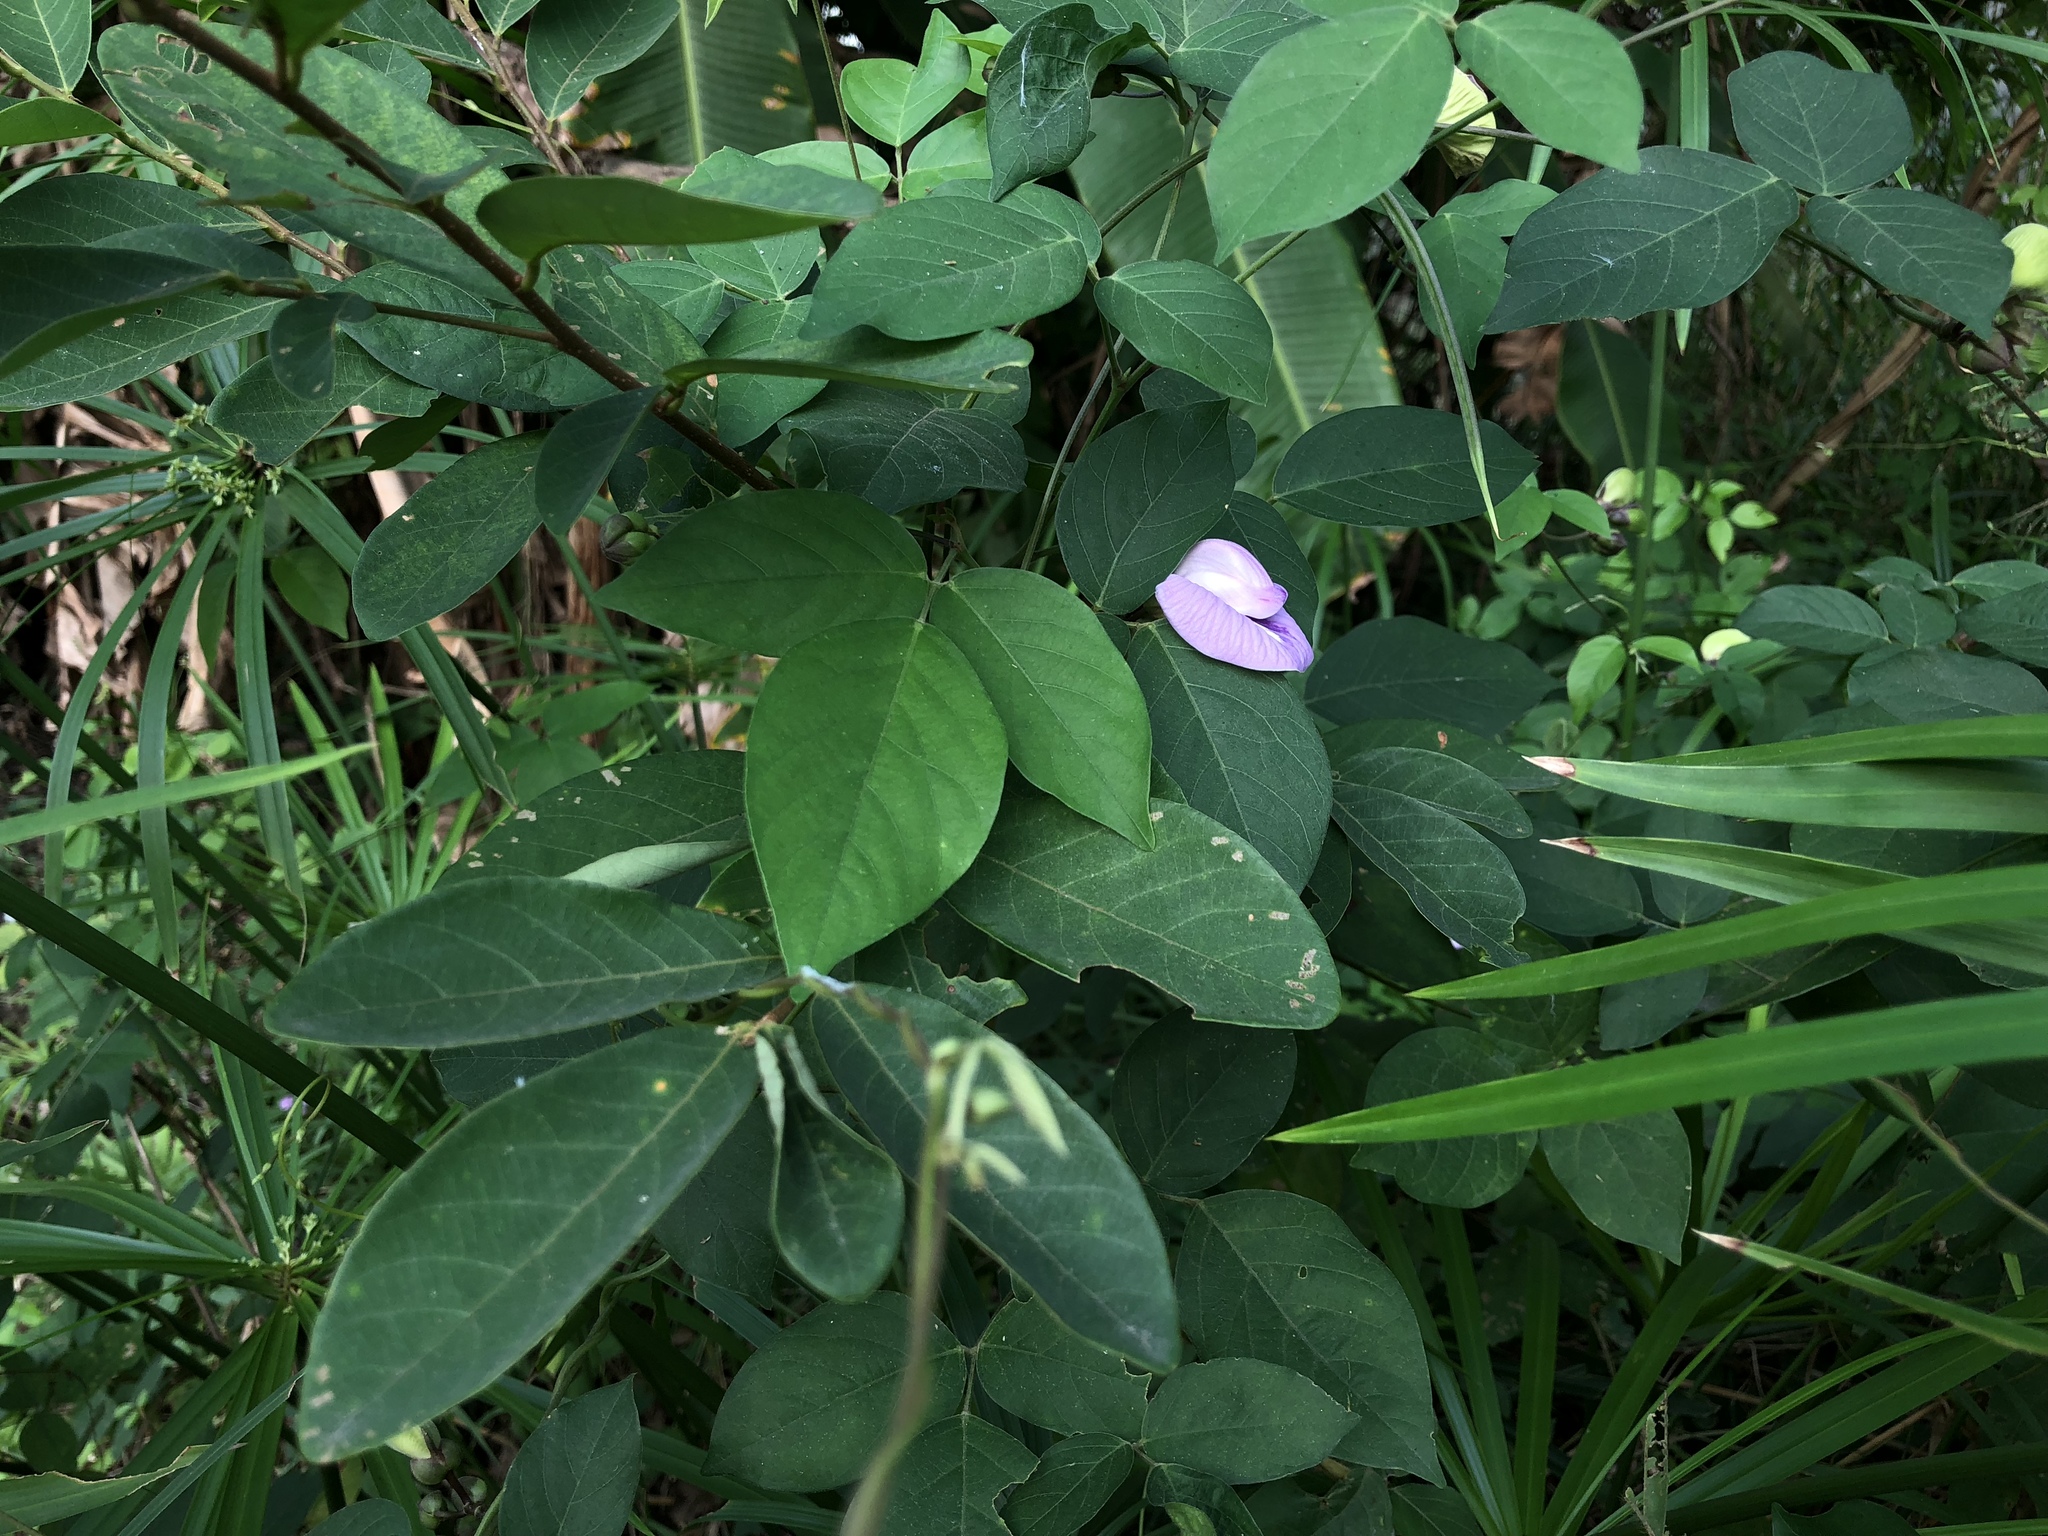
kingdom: Plantae
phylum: Tracheophyta
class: Magnoliopsida
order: Fabales
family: Fabaceae
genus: Centrosema
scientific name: Centrosema pubescens
